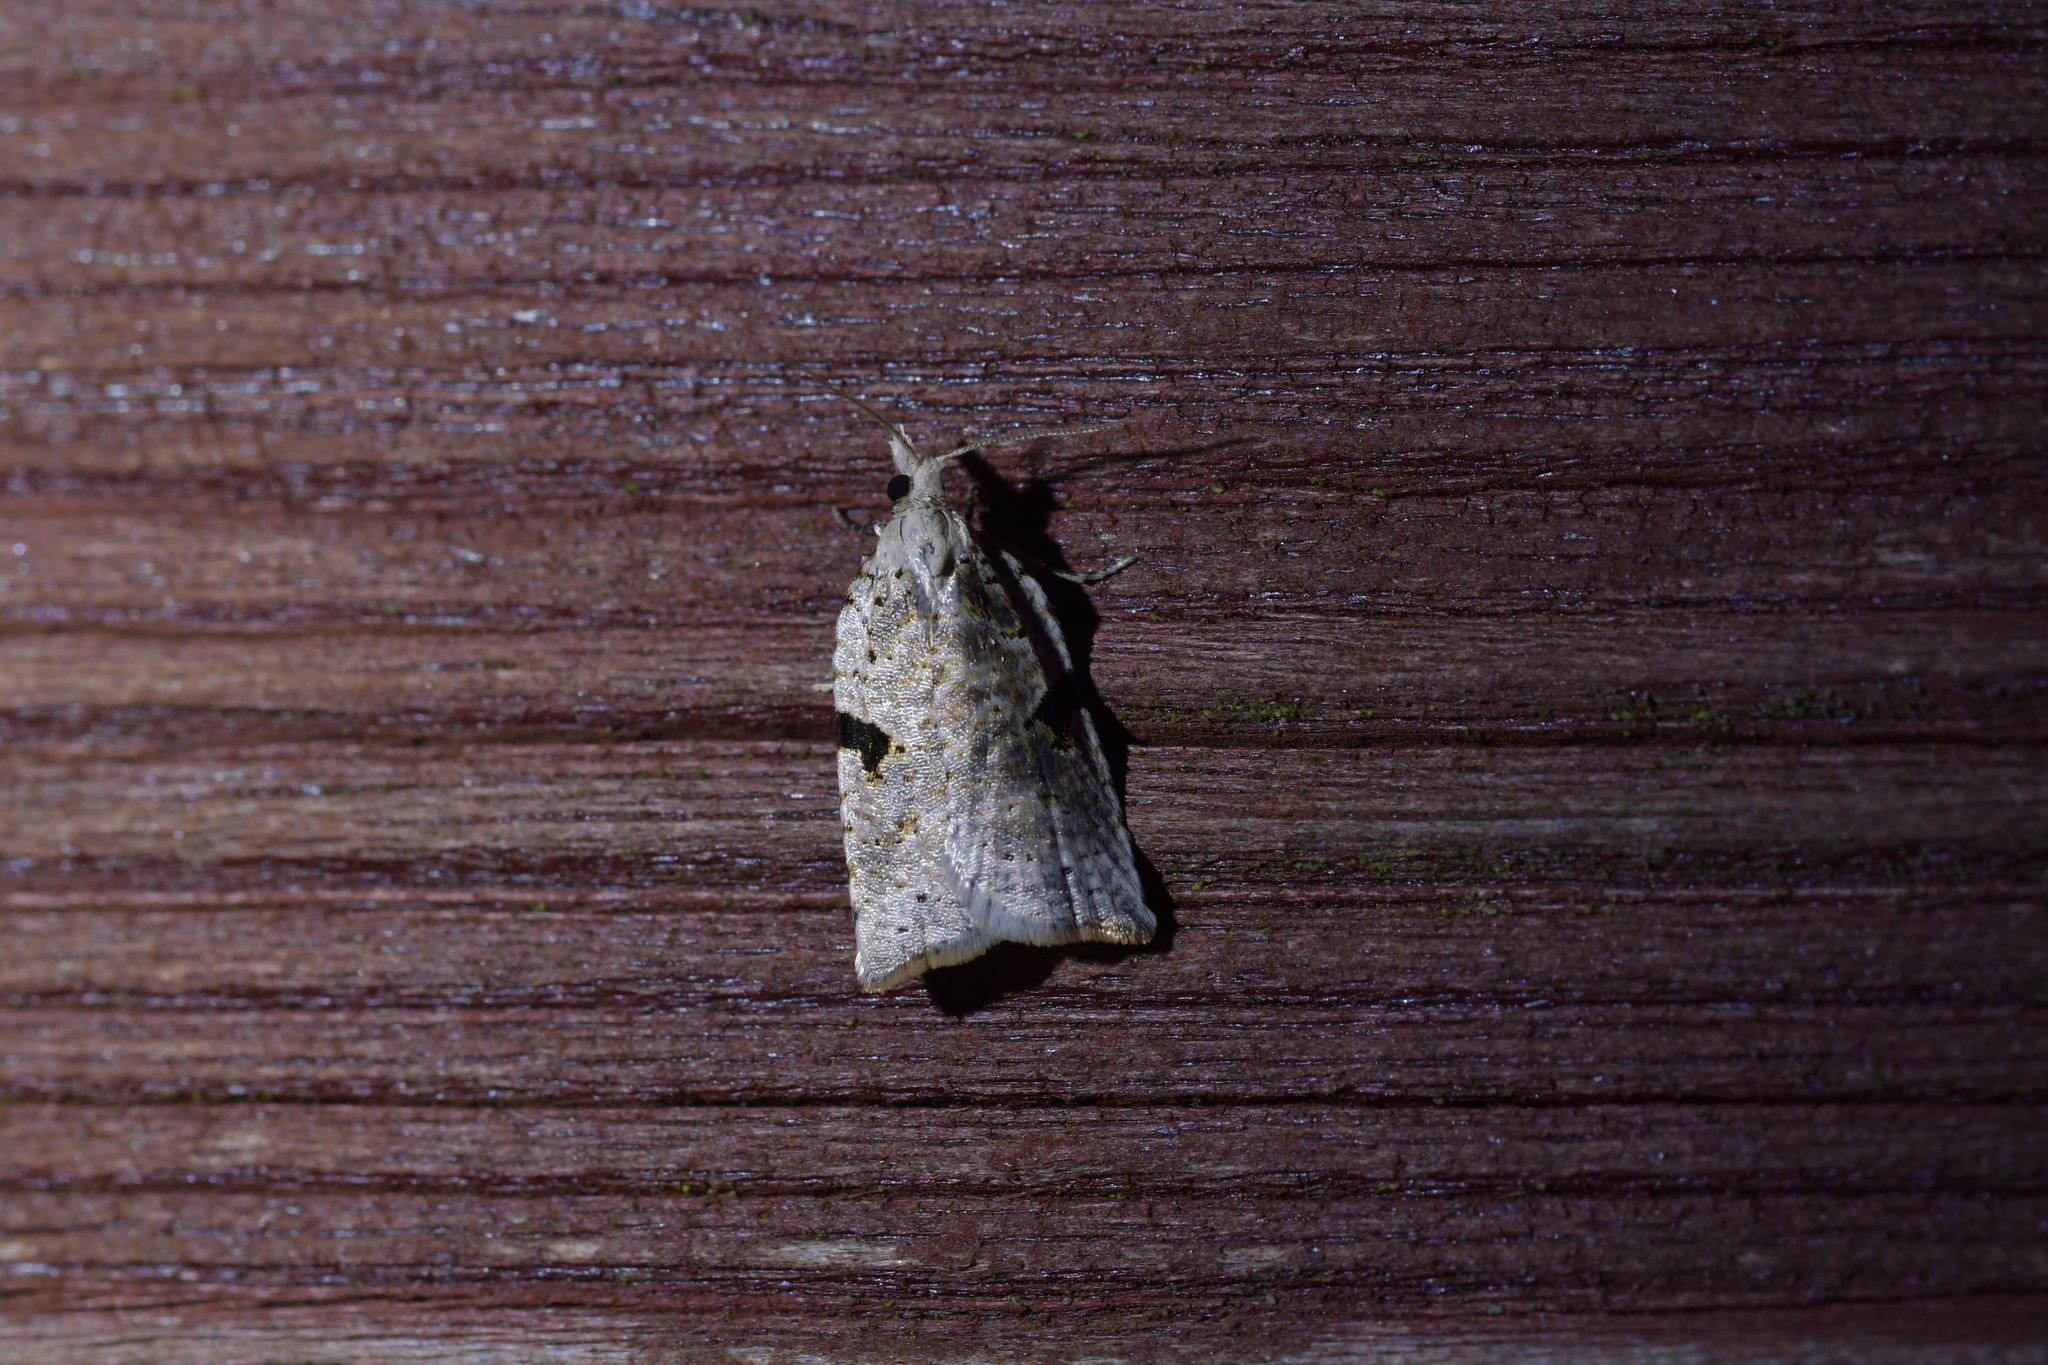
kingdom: Animalia
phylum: Arthropoda
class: Insecta
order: Lepidoptera
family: Tortricidae
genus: Leucotenes
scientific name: Leucotenes coprosmae
